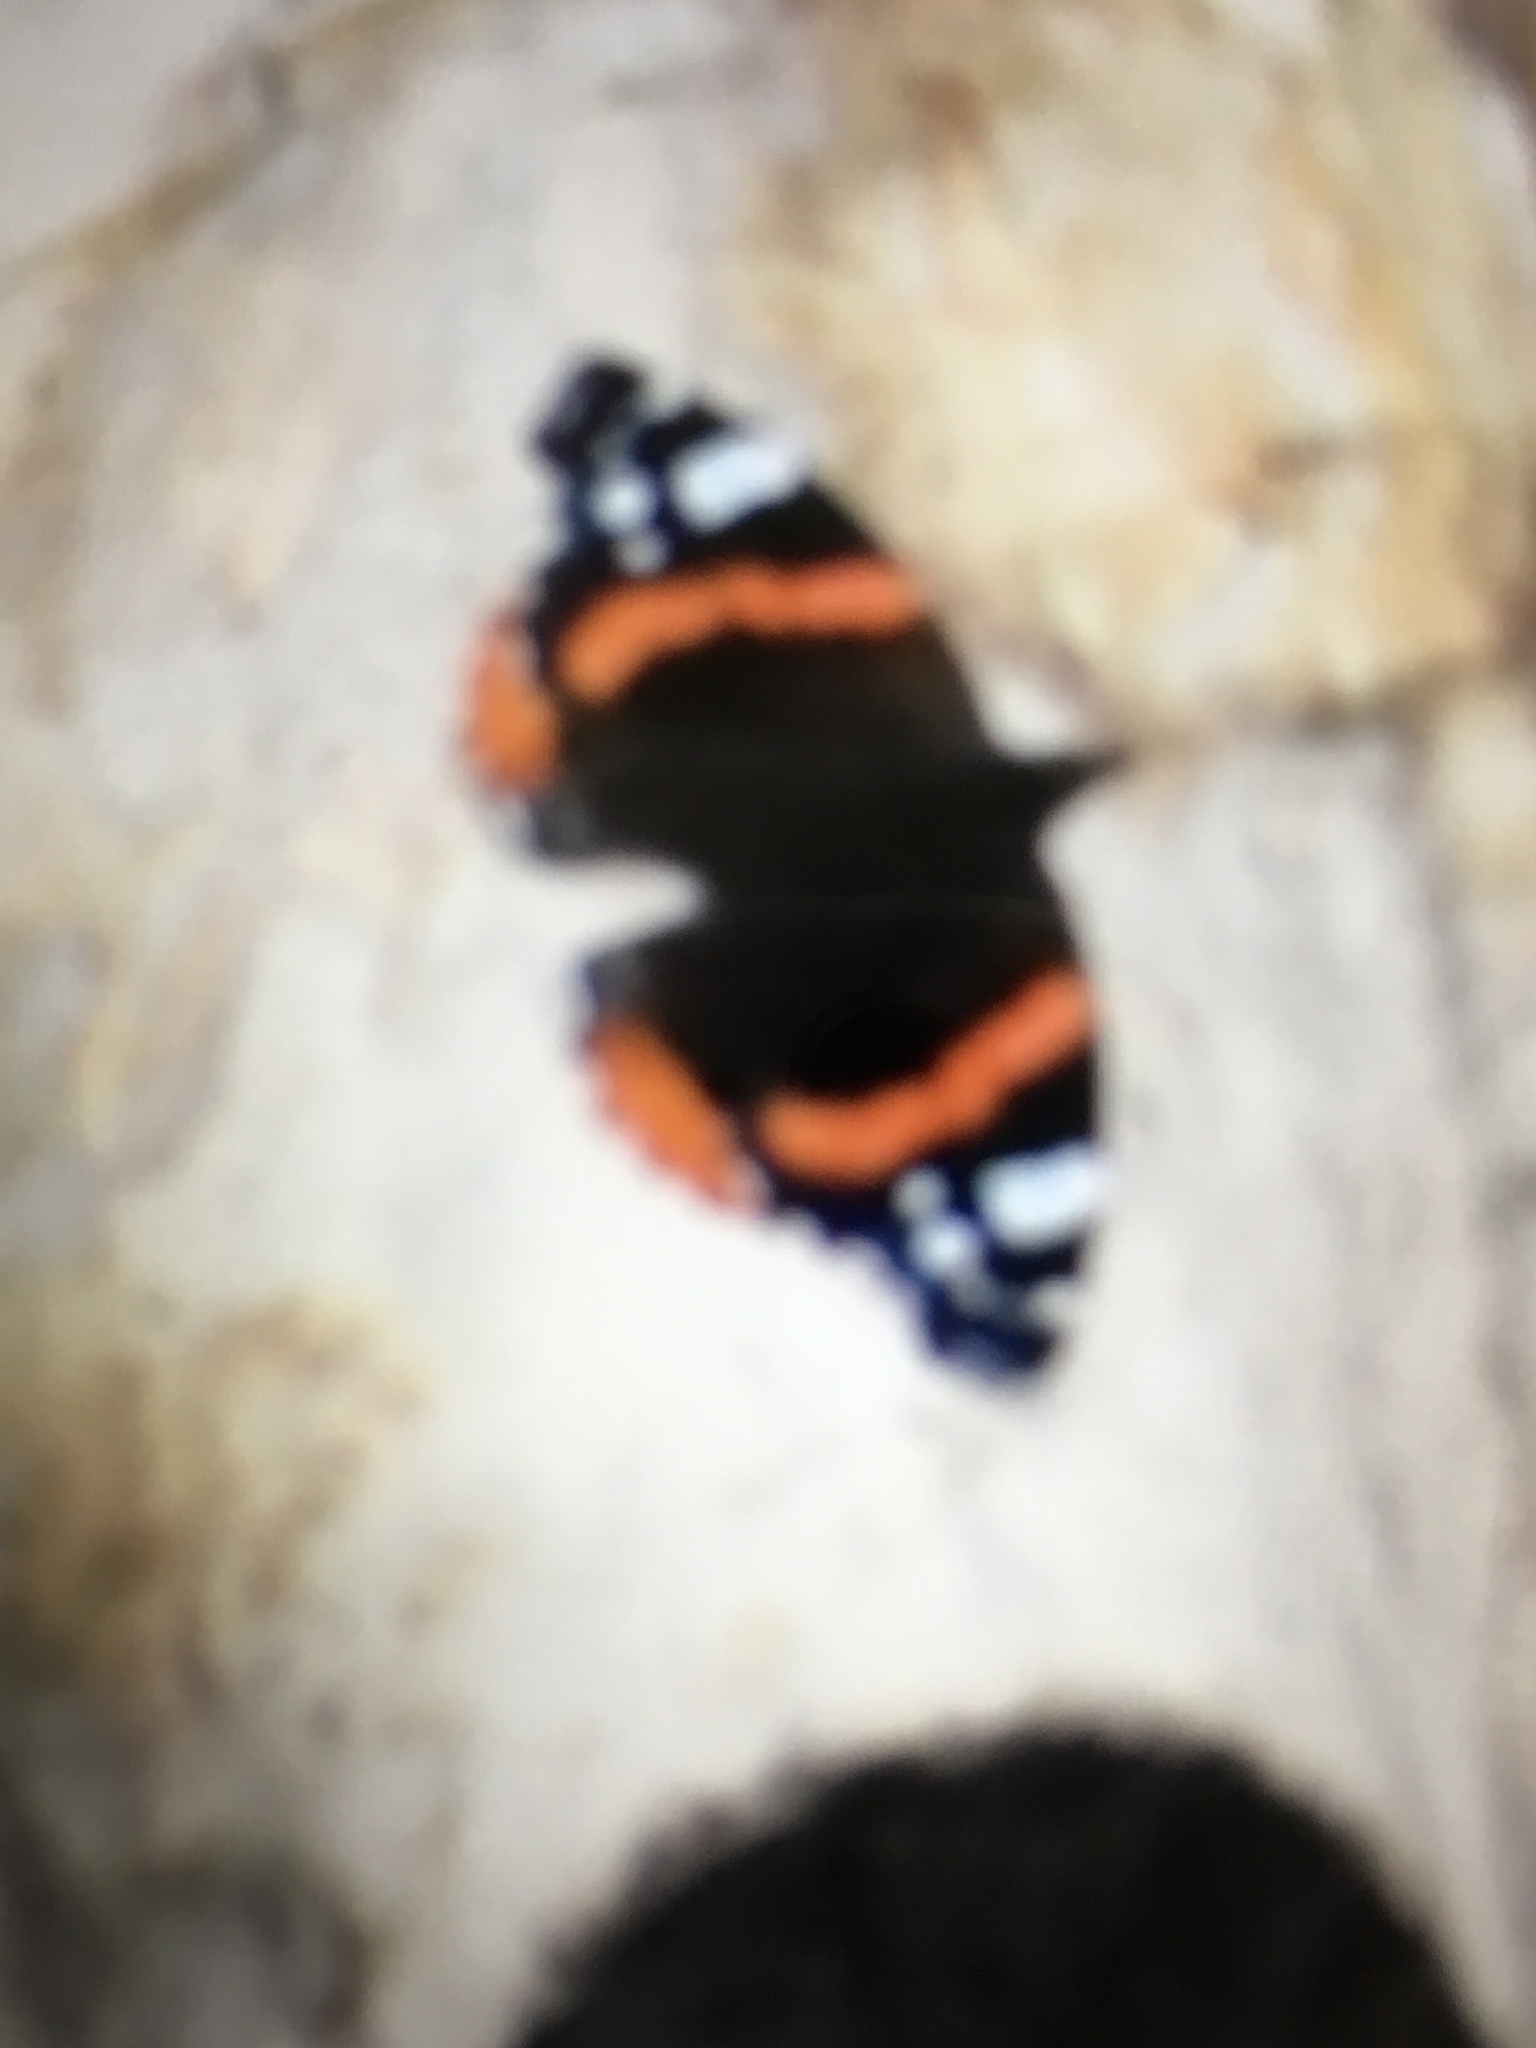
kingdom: Animalia
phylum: Arthropoda
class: Insecta
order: Lepidoptera
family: Nymphalidae
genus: Vanessa
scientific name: Vanessa atalanta
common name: Red admiral
